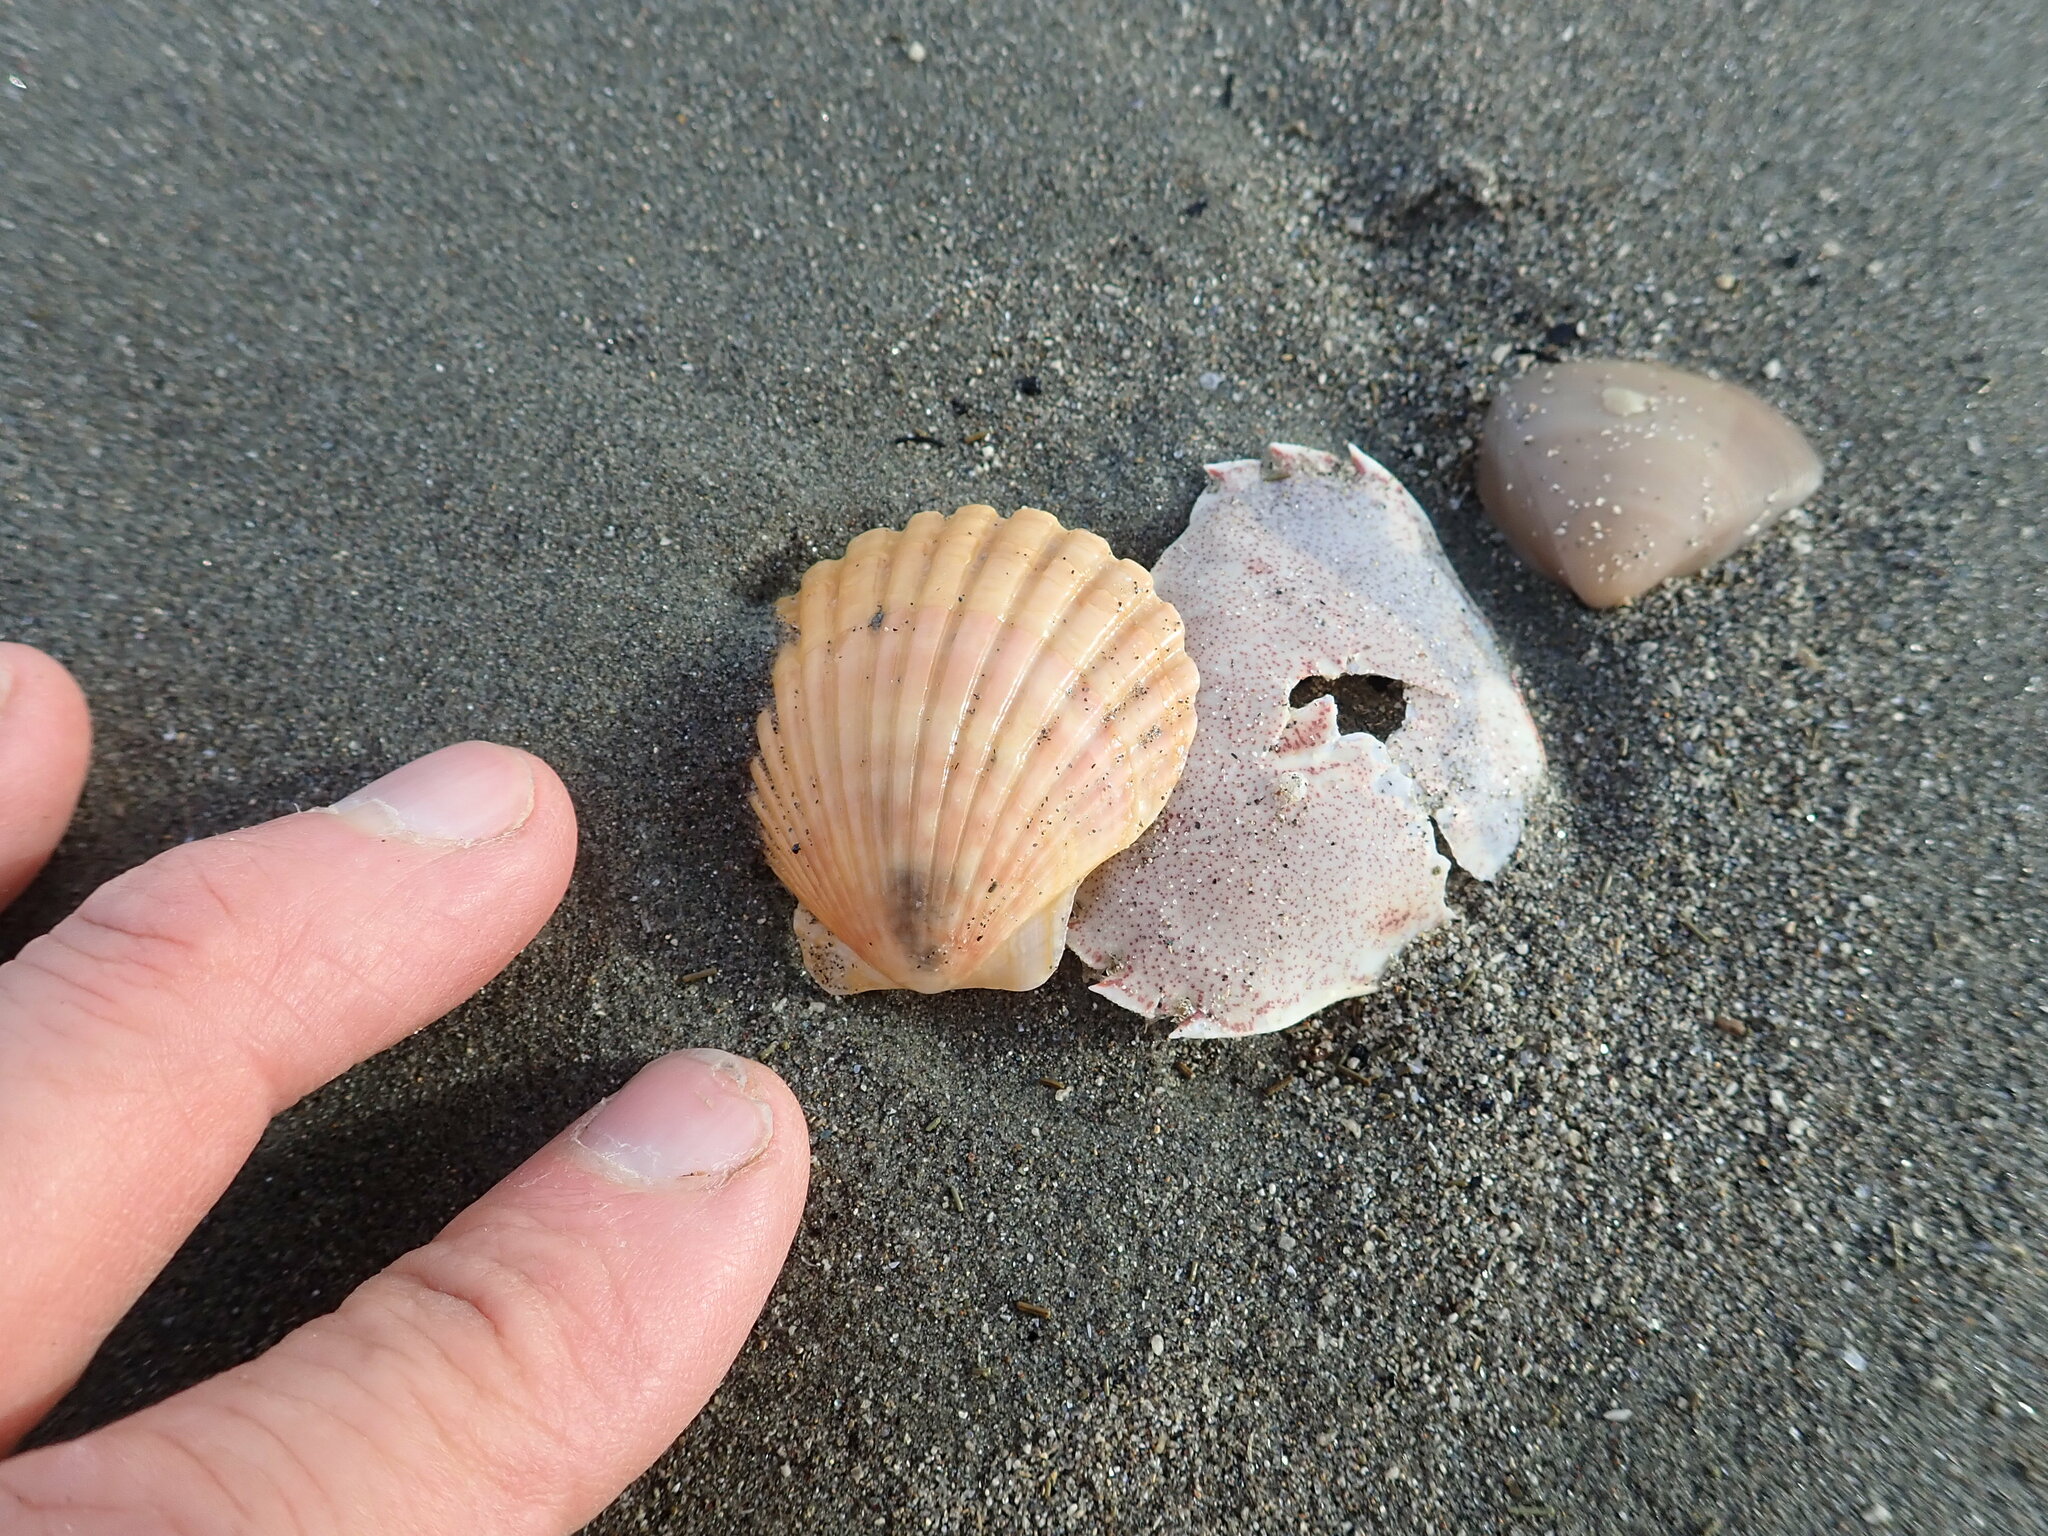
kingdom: Animalia
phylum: Mollusca
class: Bivalvia
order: Pectinida
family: Pectinidae
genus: Pecten
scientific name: Pecten novaezelandiae
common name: New zealand scallop
